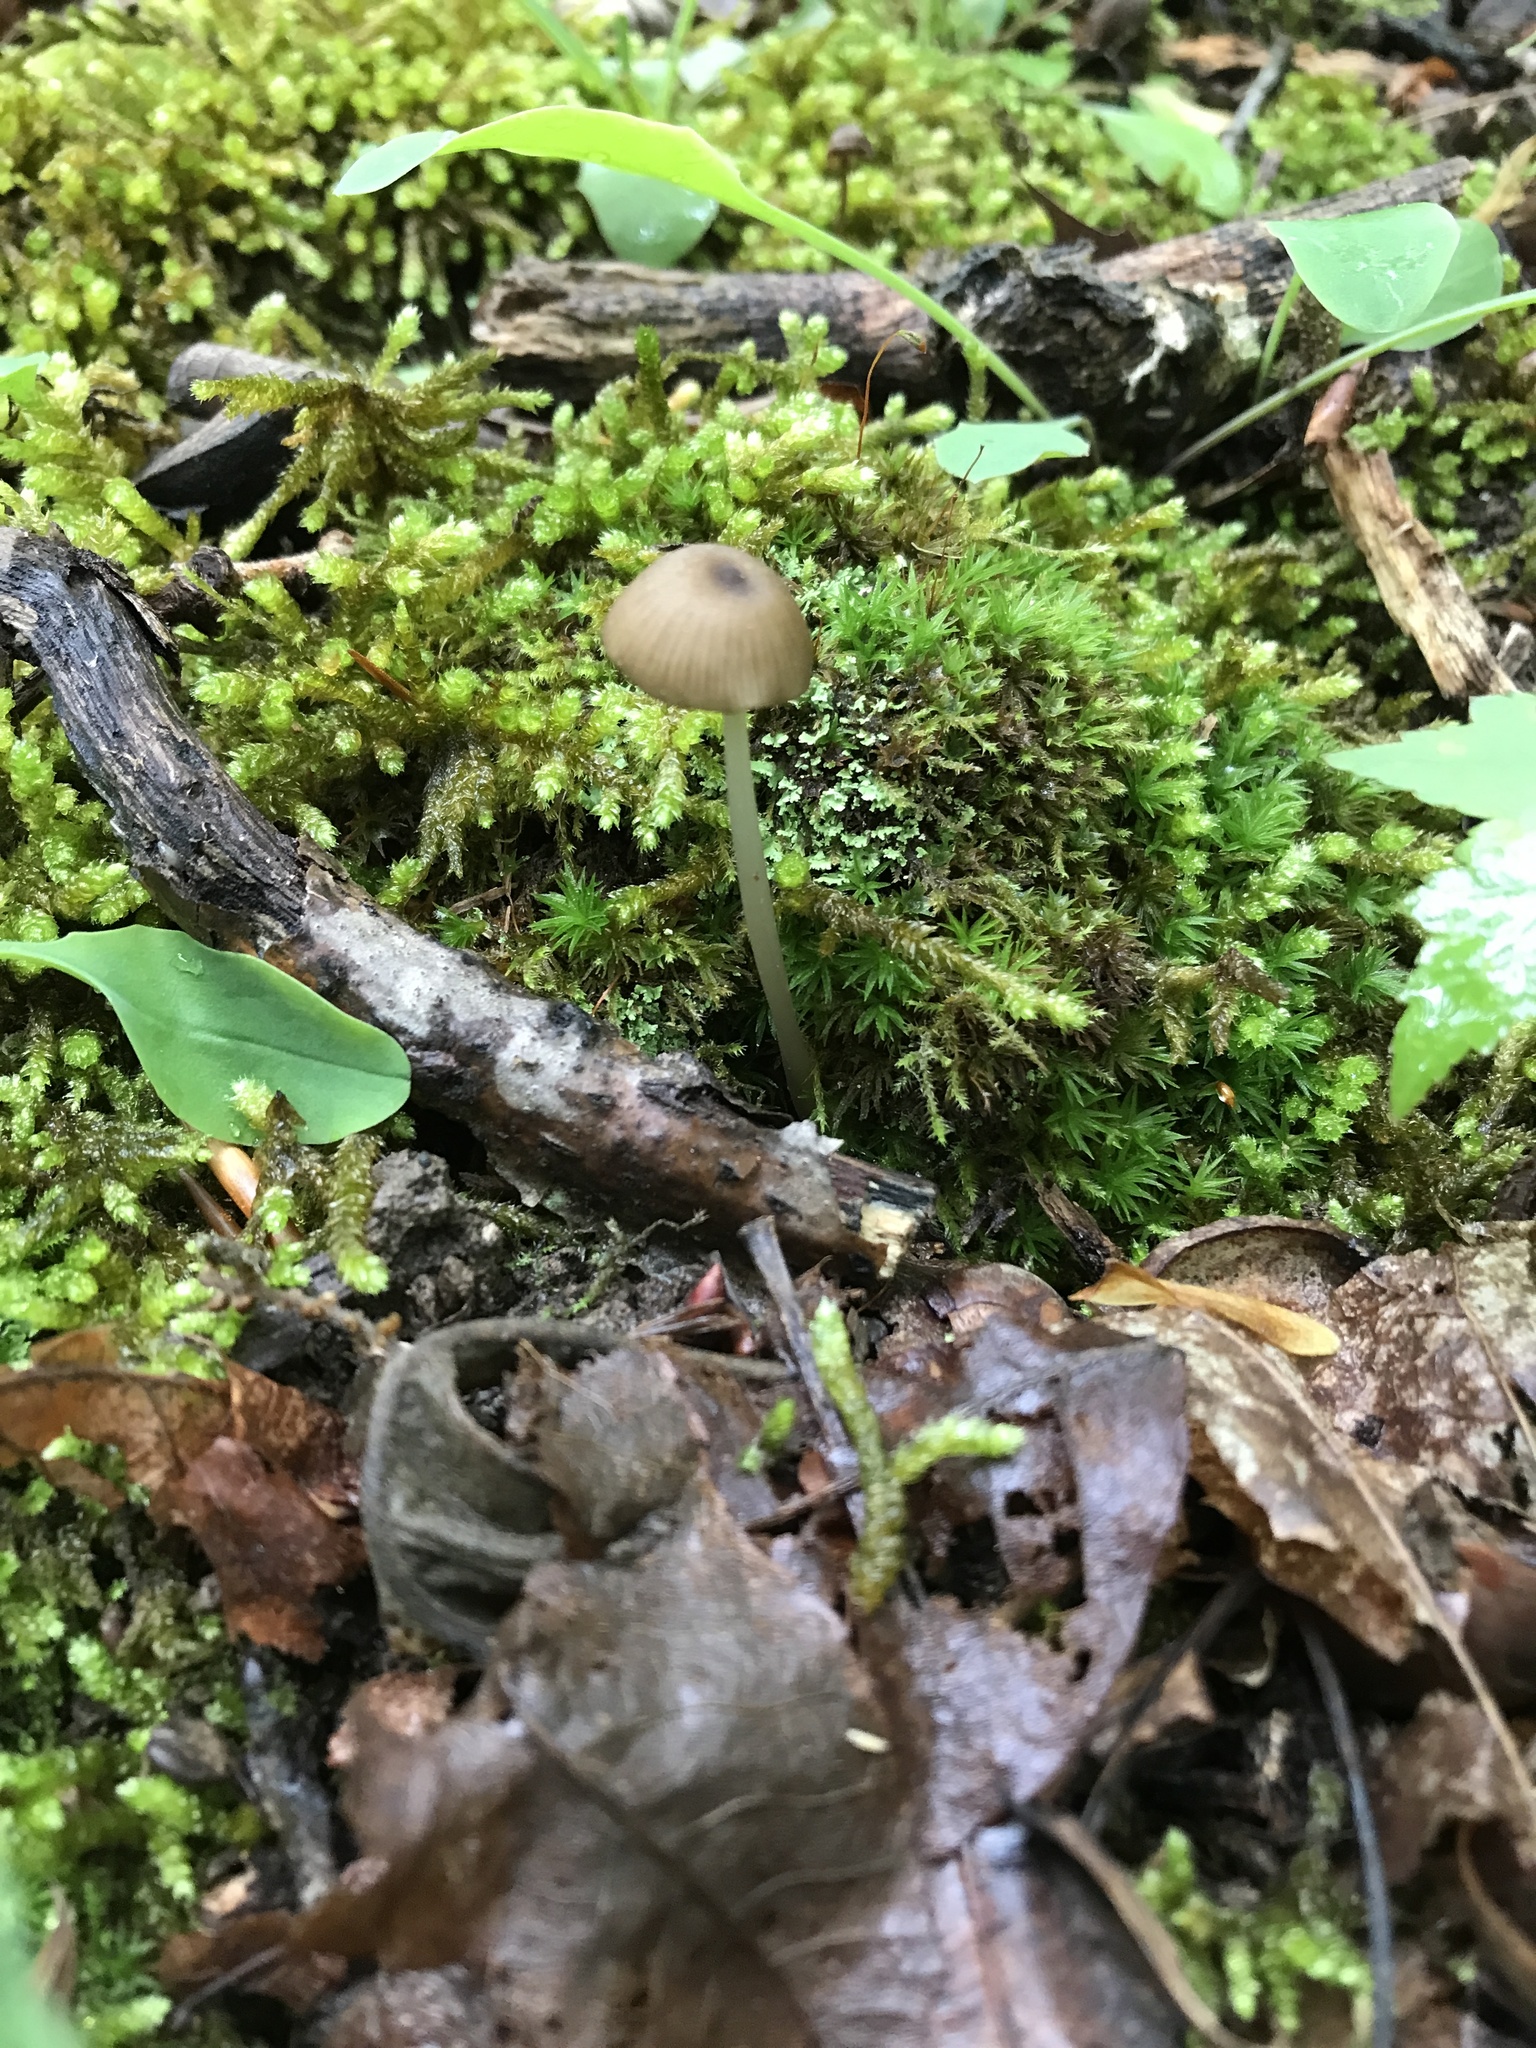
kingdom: Fungi
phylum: Basidiomycota
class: Agaricomycetes
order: Agaricales
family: Entolomataceae
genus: Entoloma
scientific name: Entoloma olivaceomarginatum
